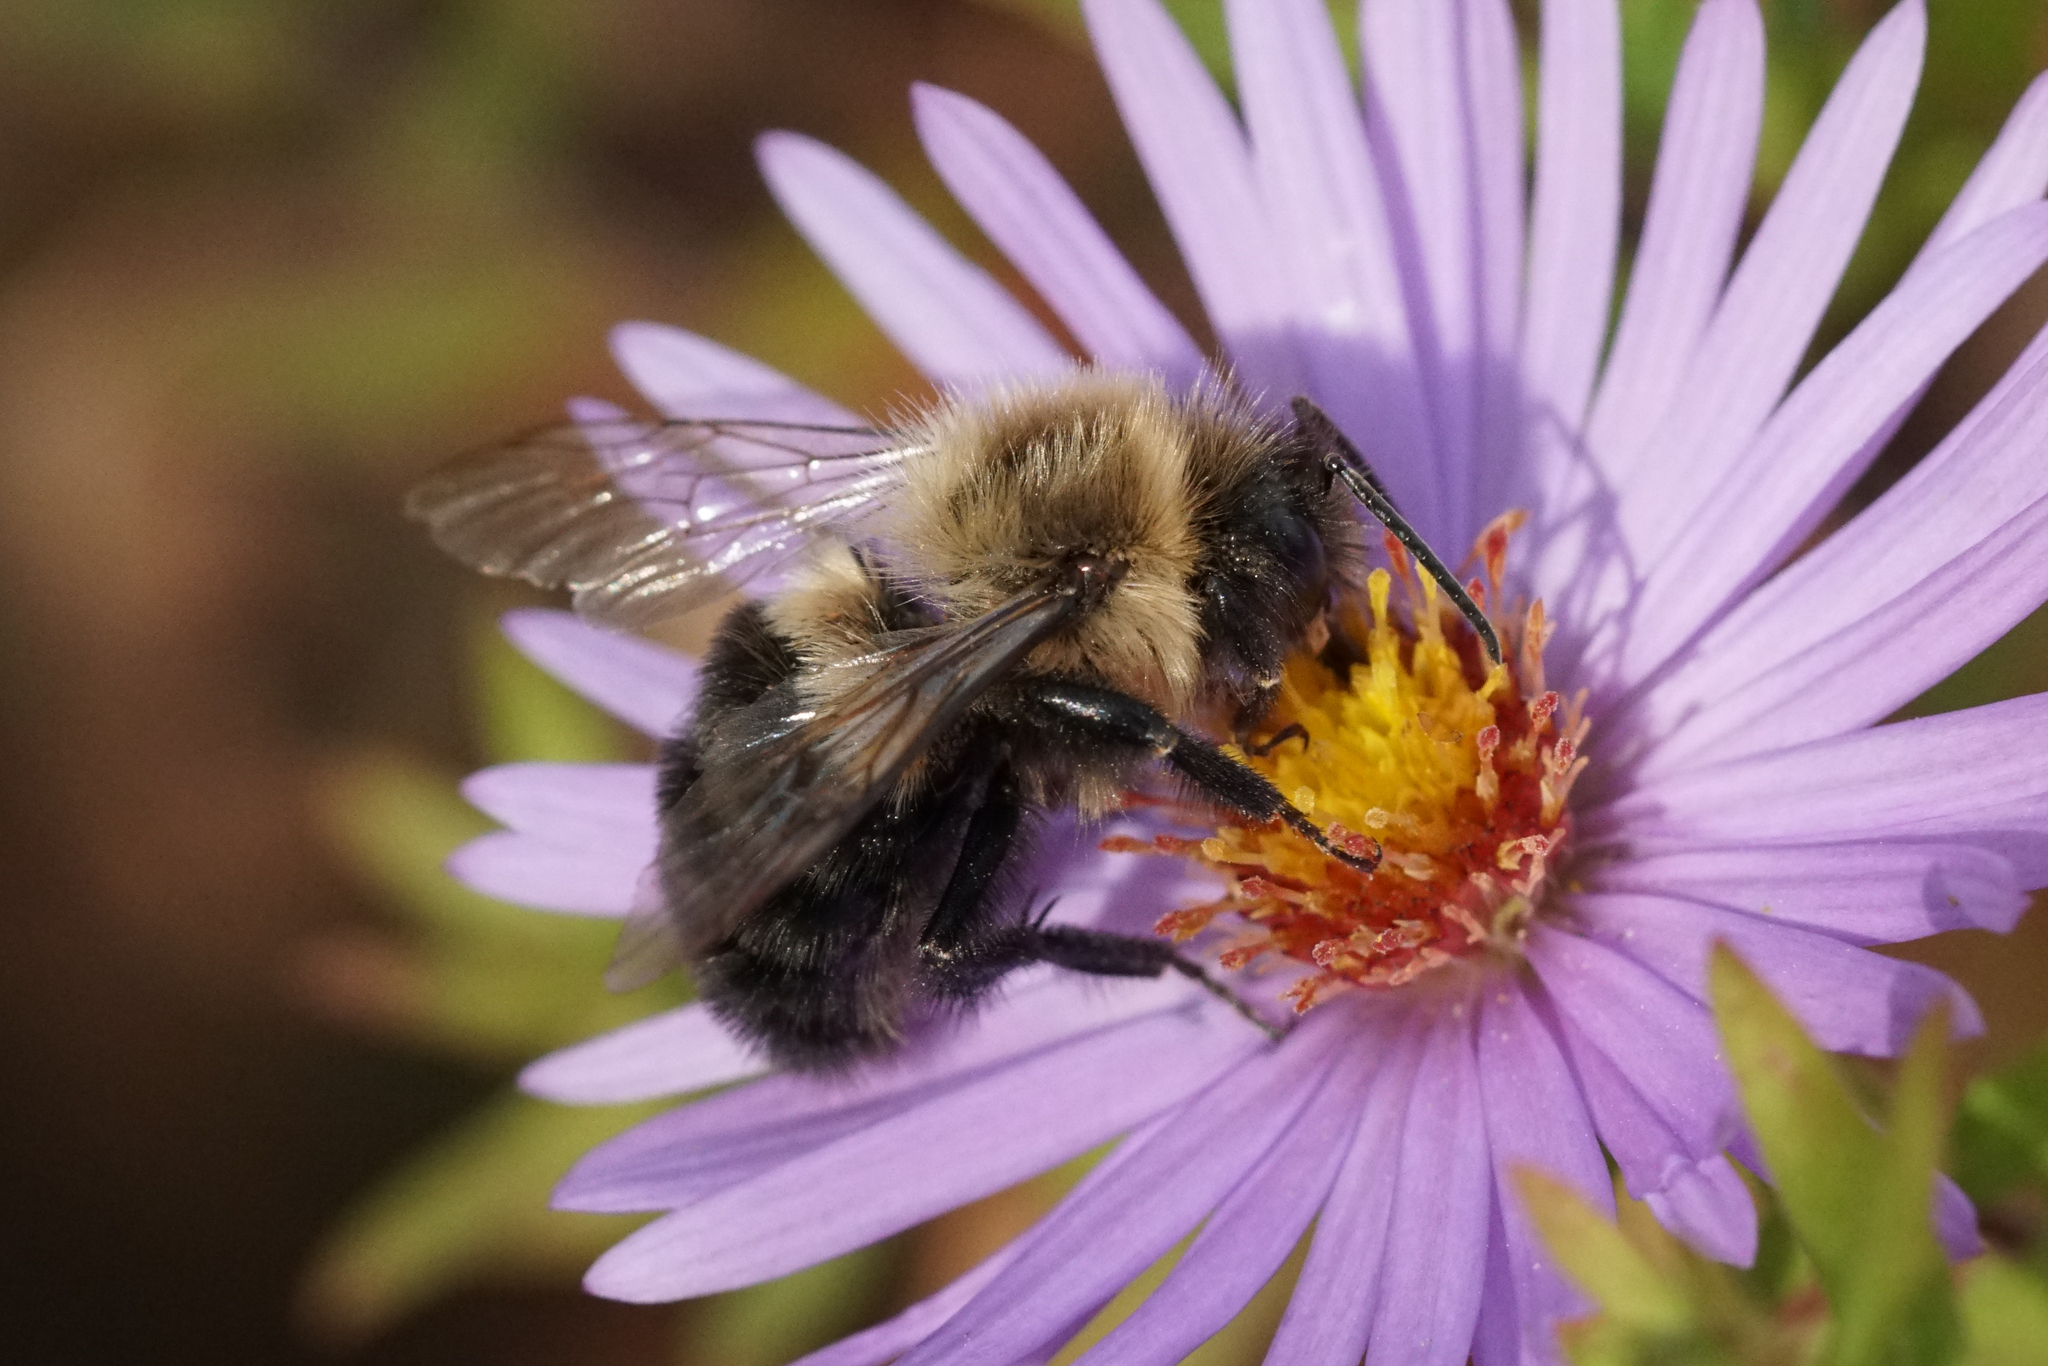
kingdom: Animalia
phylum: Arthropoda
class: Insecta
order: Hymenoptera
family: Apidae
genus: Bombus
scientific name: Bombus impatiens
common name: Common eastern bumble bee
